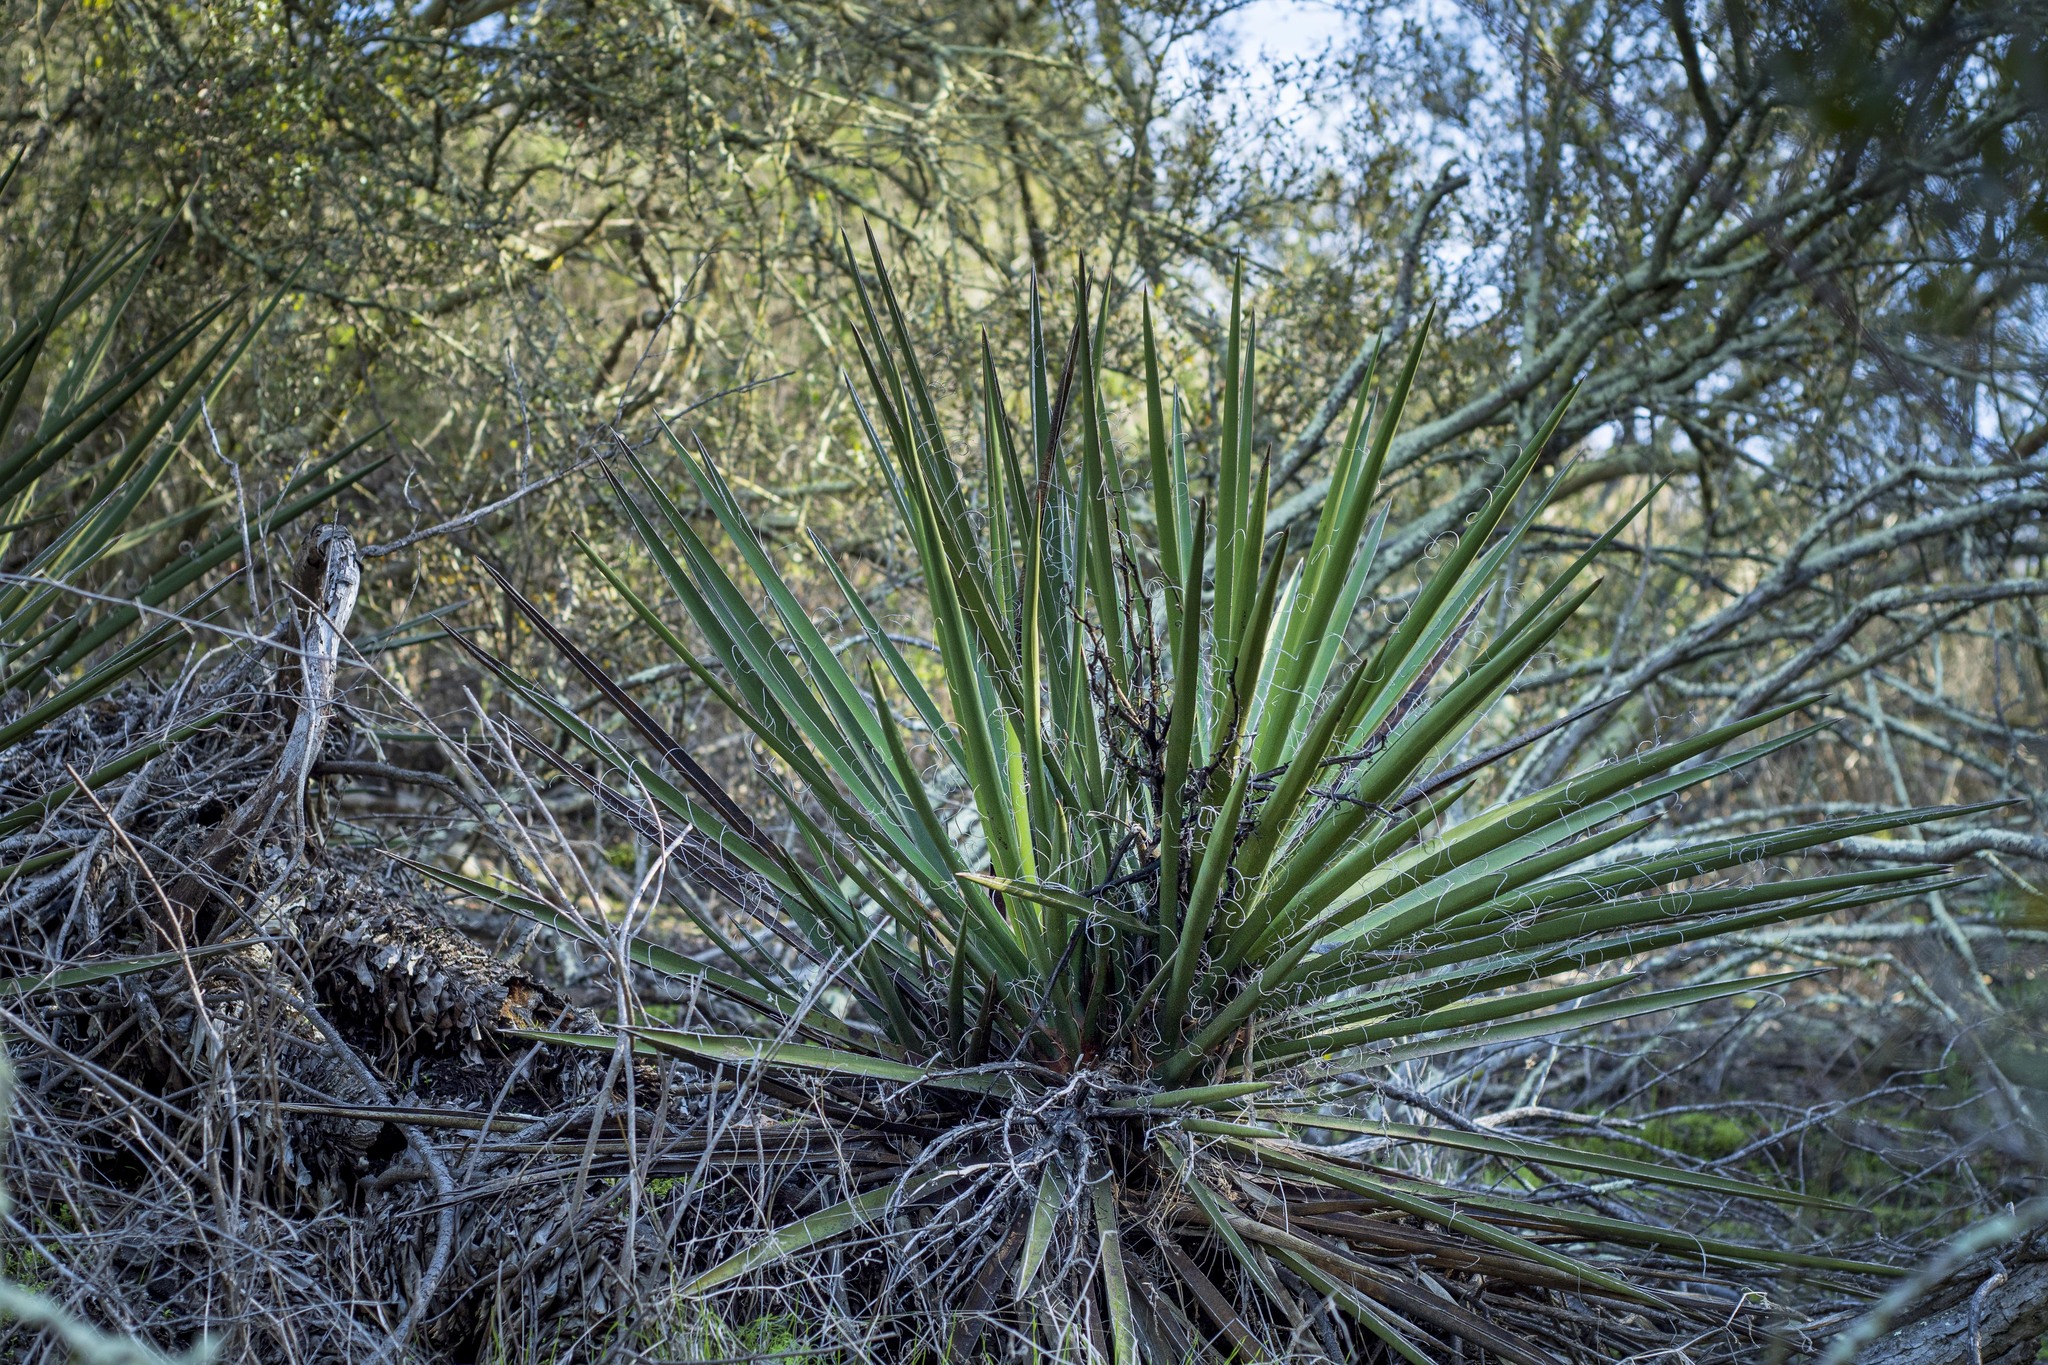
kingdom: Plantae
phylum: Tracheophyta
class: Liliopsida
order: Asparagales
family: Asparagaceae
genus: Yucca
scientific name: Yucca schidigera
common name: Mojave yucca
